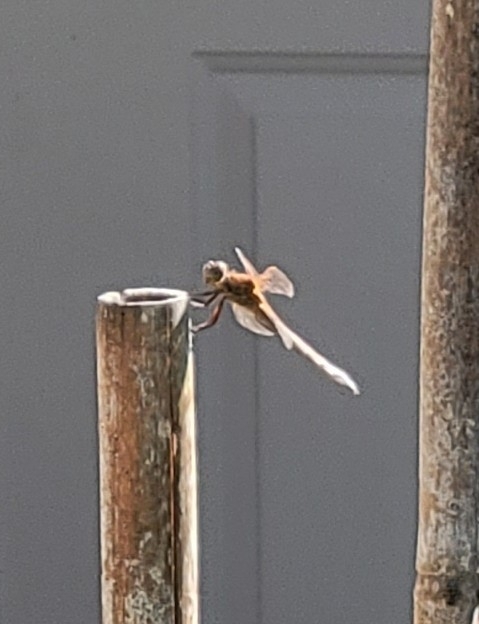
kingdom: Animalia
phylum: Arthropoda
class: Insecta
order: Odonata
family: Libellulidae
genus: Libellula
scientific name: Libellula needhami
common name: Needham's skimmer
